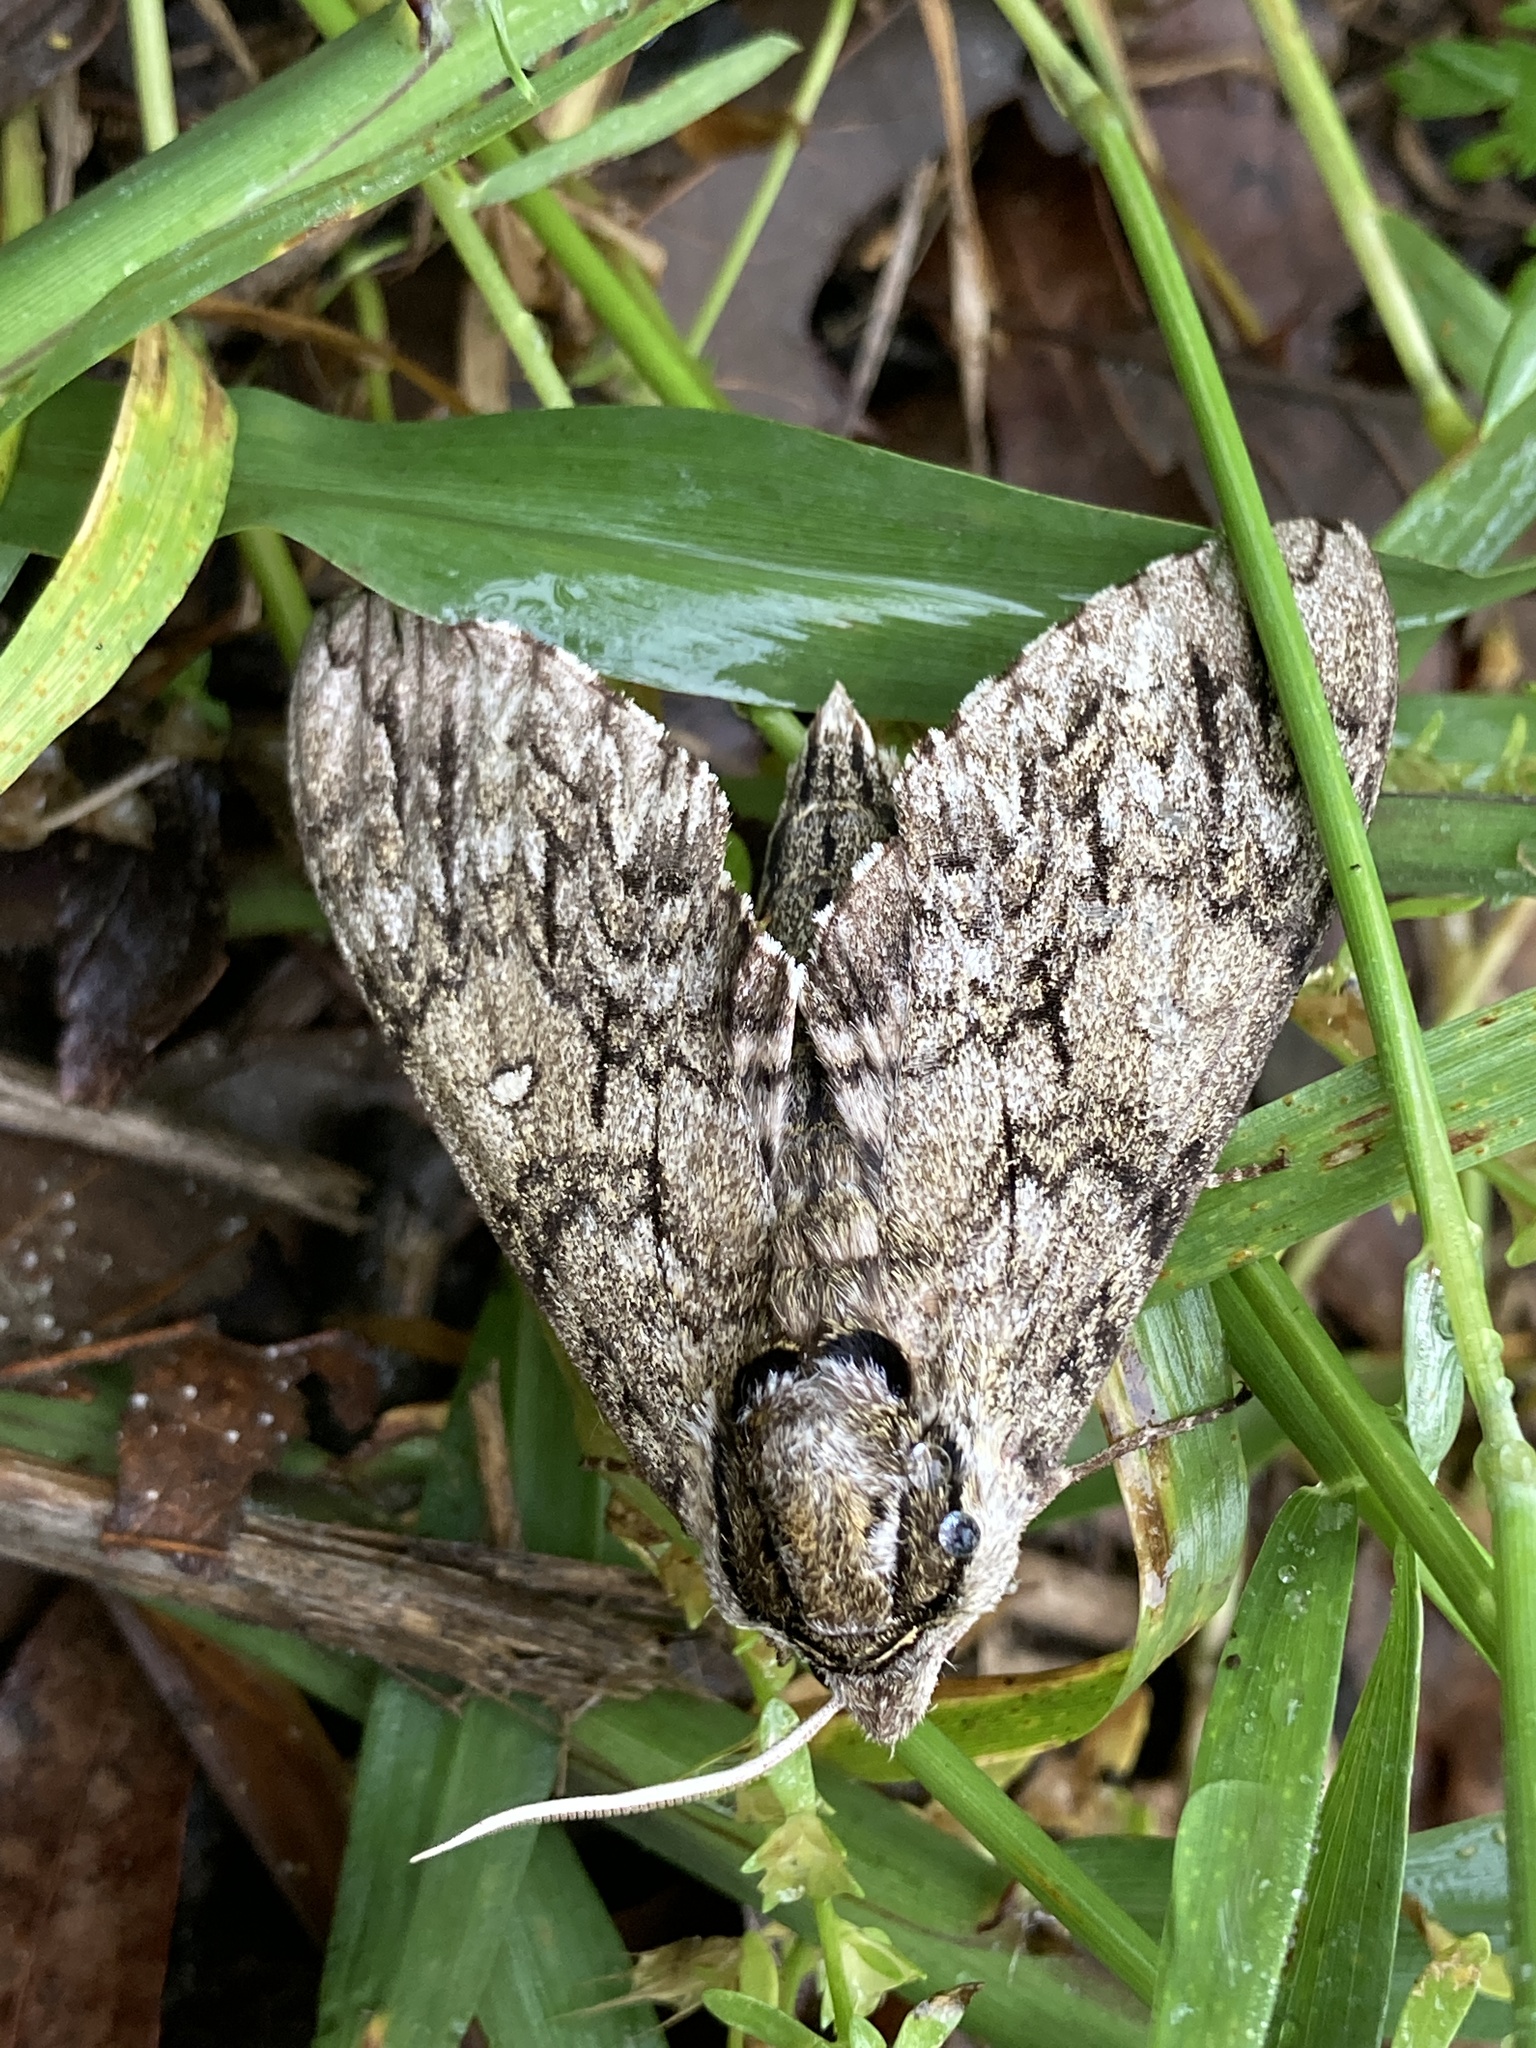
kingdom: Animalia
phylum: Arthropoda
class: Insecta
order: Lepidoptera
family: Sphingidae
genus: Ceratomia
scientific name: Ceratomia undulosa
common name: Waved sphinx
